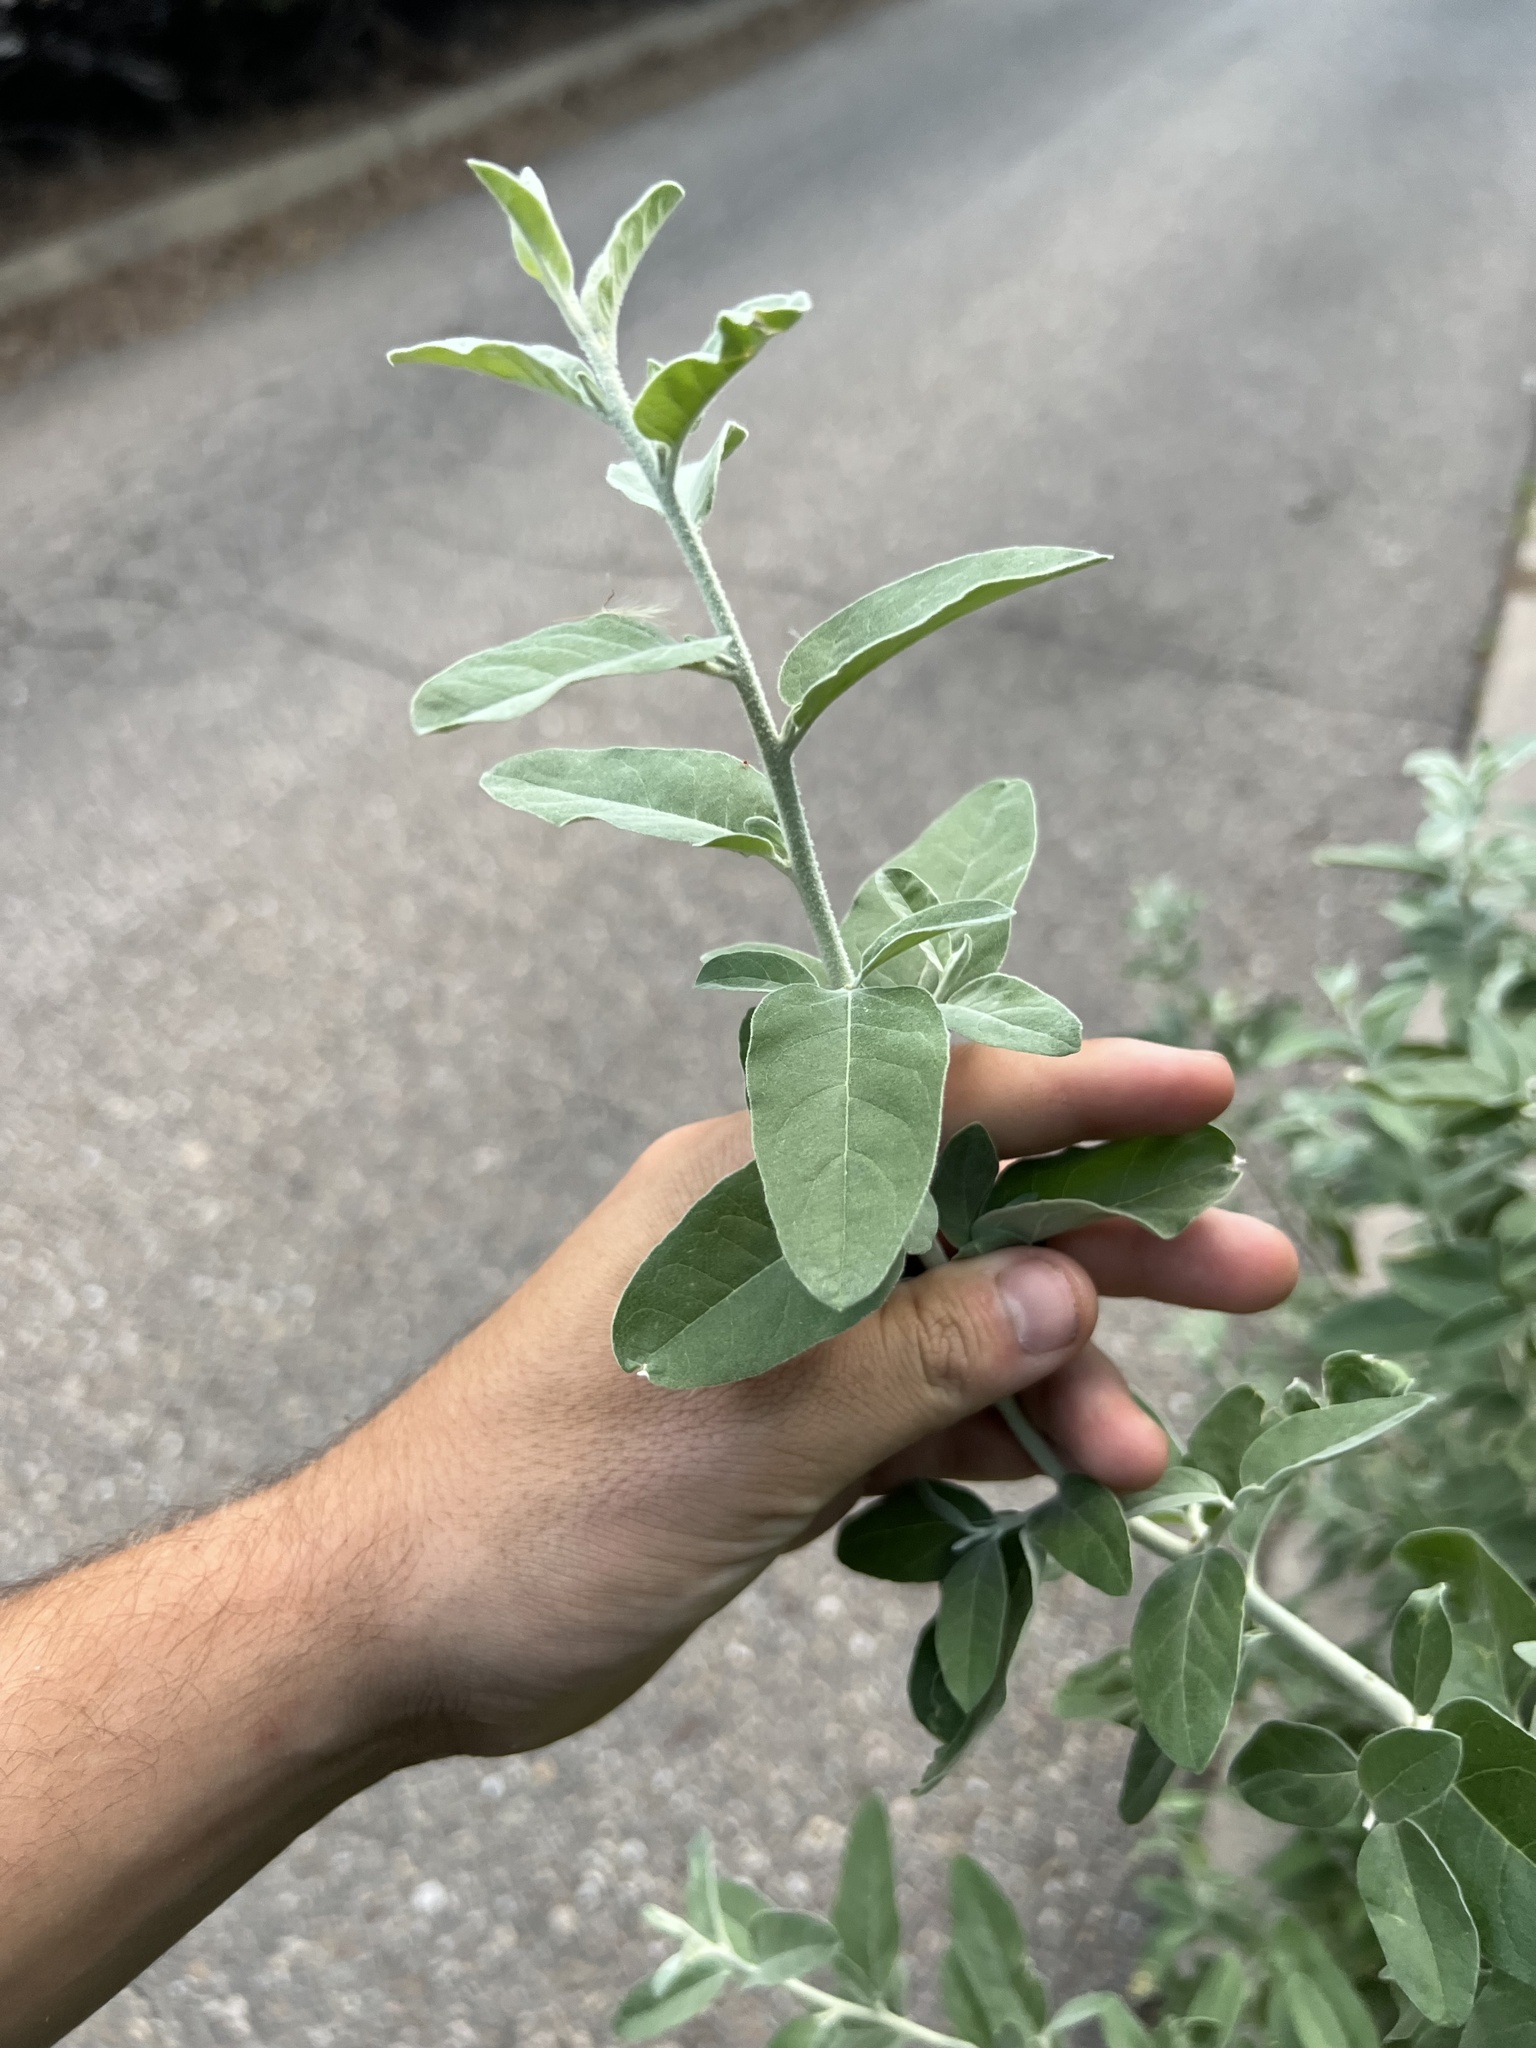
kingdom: Plantae
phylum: Tracheophyta
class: Magnoliopsida
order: Rosales
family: Elaeagnaceae
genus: Elaeagnus
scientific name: Elaeagnus angustifolia
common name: Russian olive
